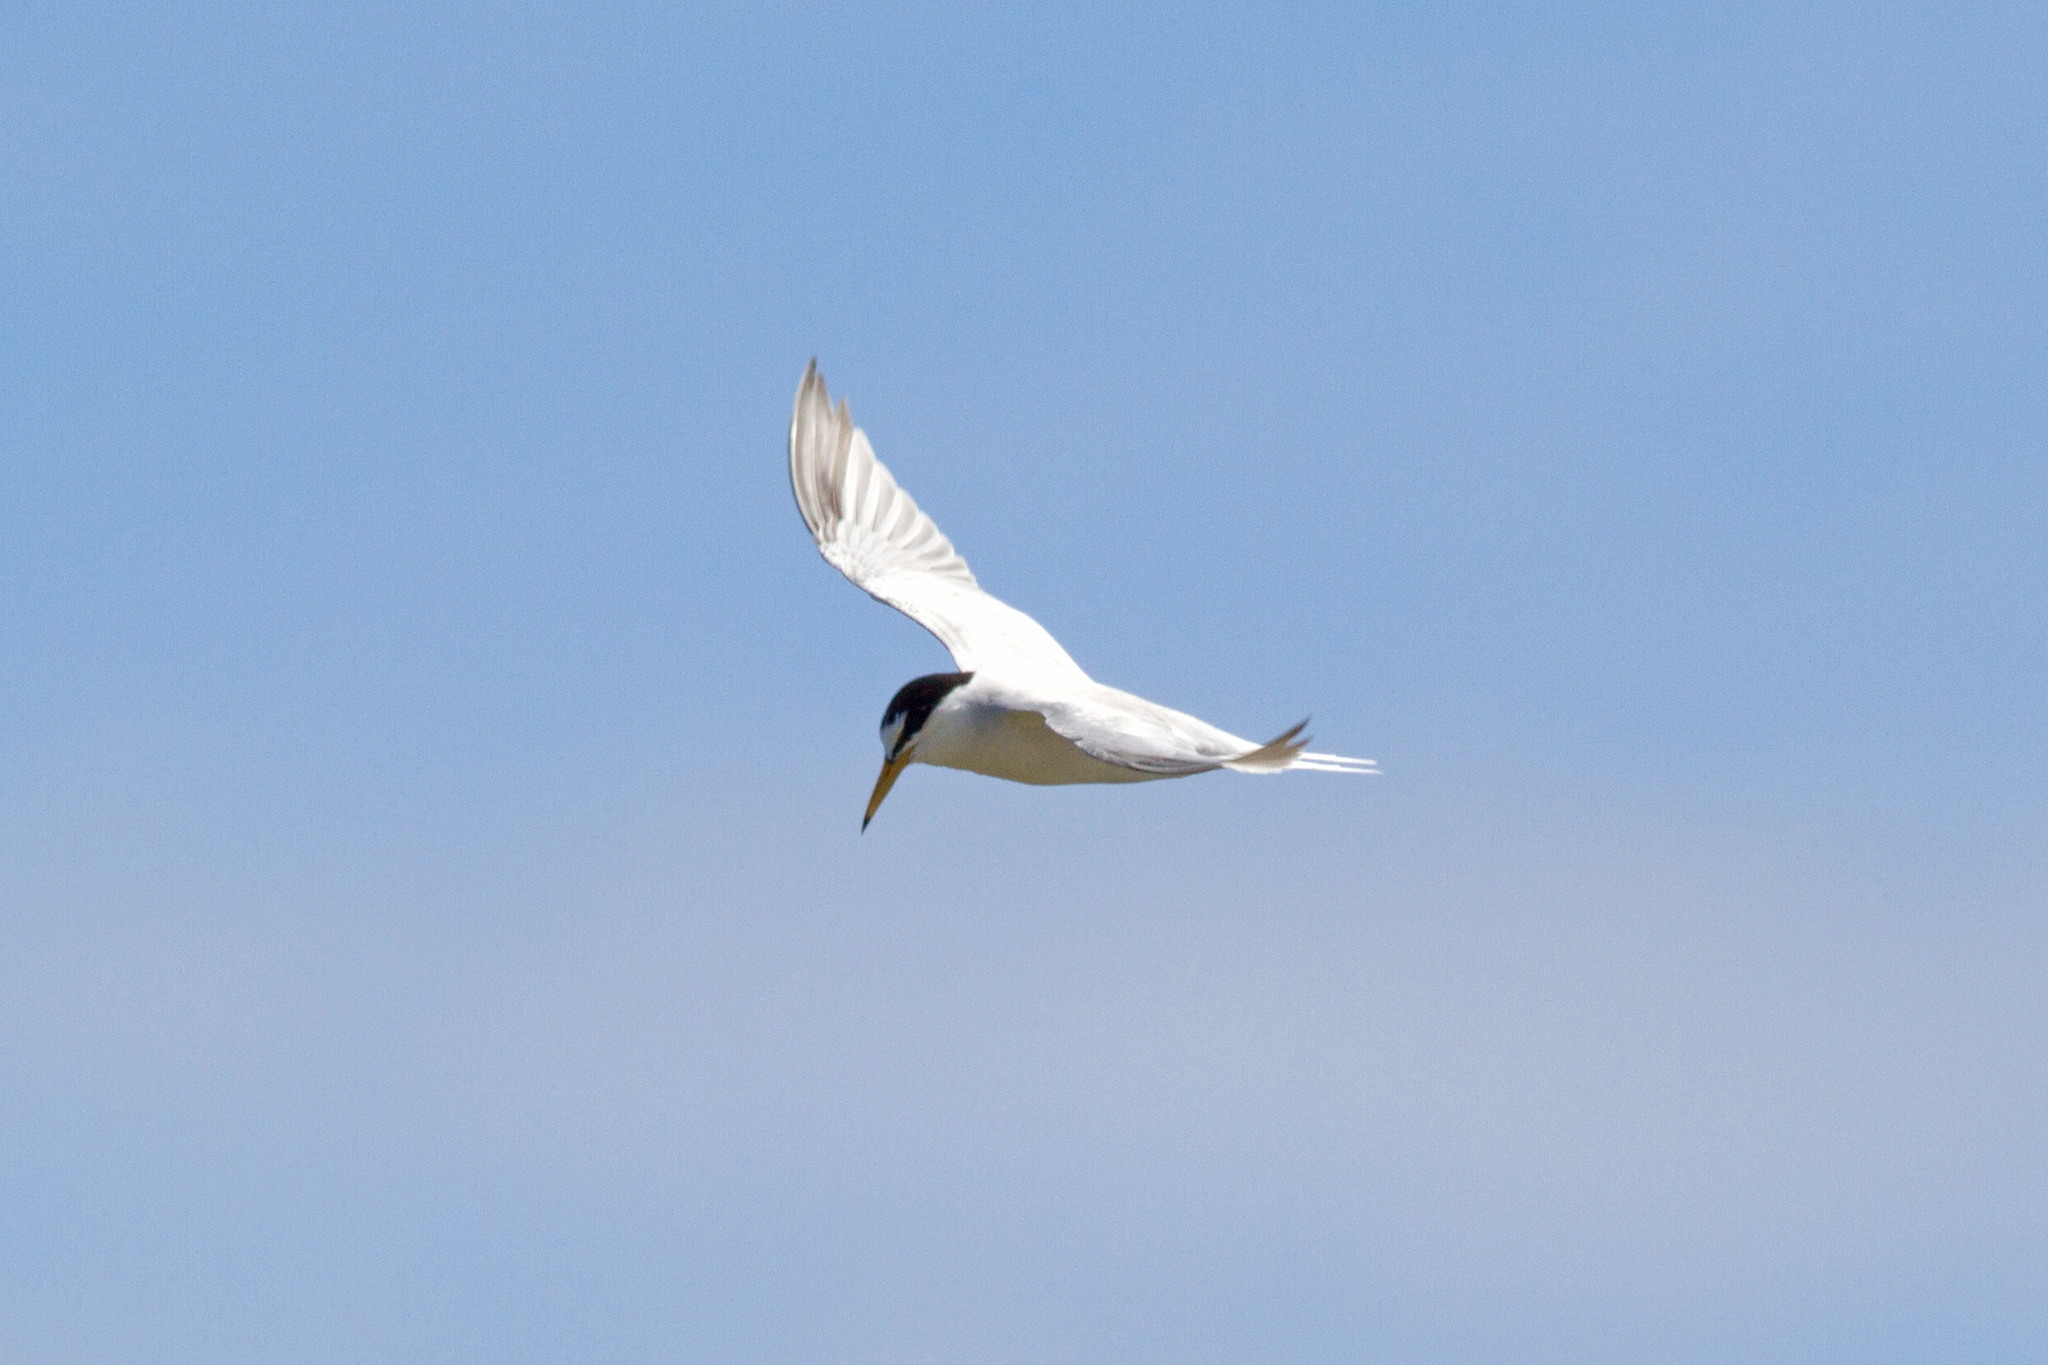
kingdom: Animalia
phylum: Chordata
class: Aves
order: Charadriiformes
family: Laridae
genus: Sternula
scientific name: Sternula albifrons
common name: Little tern
